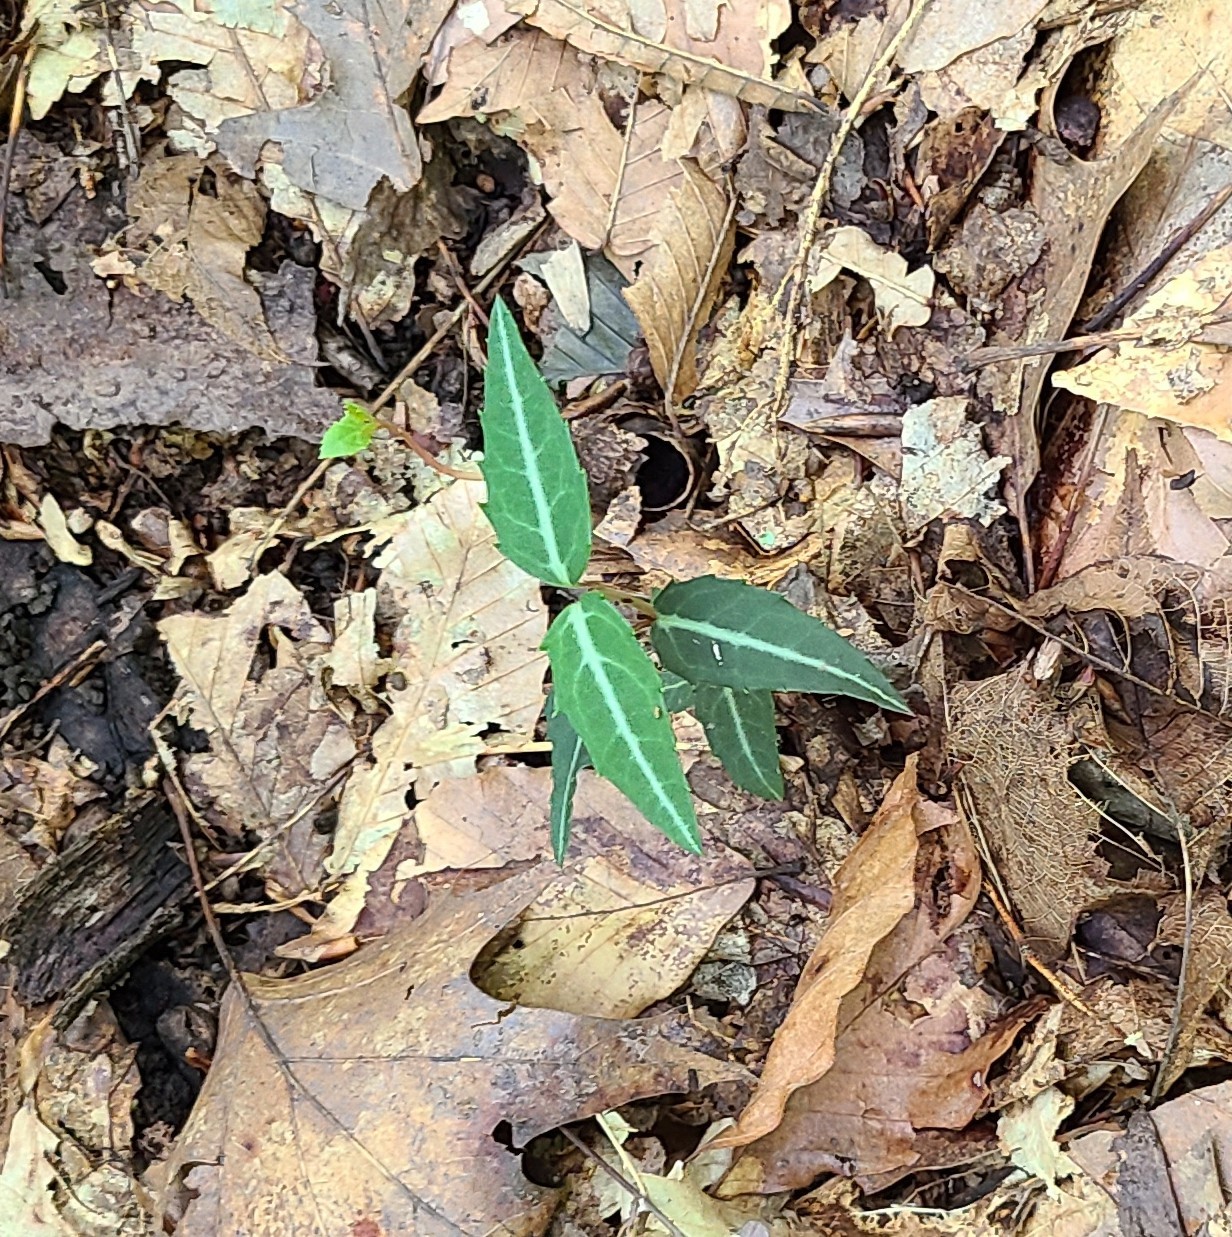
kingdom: Plantae
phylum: Tracheophyta
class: Magnoliopsida
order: Ericales
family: Ericaceae
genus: Chimaphila
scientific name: Chimaphila maculata
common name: Spotted pipsissewa
